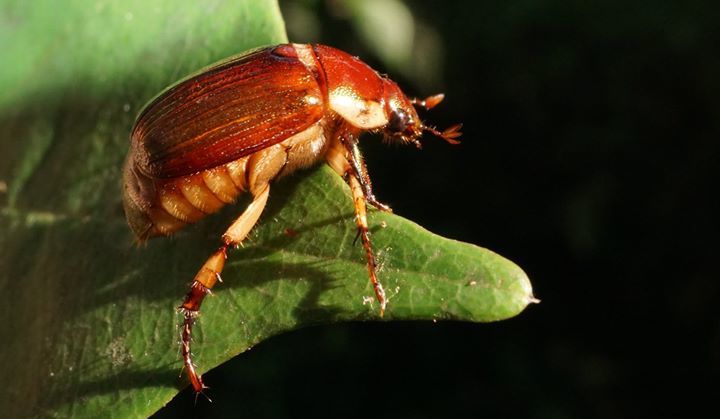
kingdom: Animalia
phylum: Arthropoda
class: Insecta
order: Coleoptera
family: Scarabaeidae
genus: Callistethus
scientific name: Callistethus marginatus
